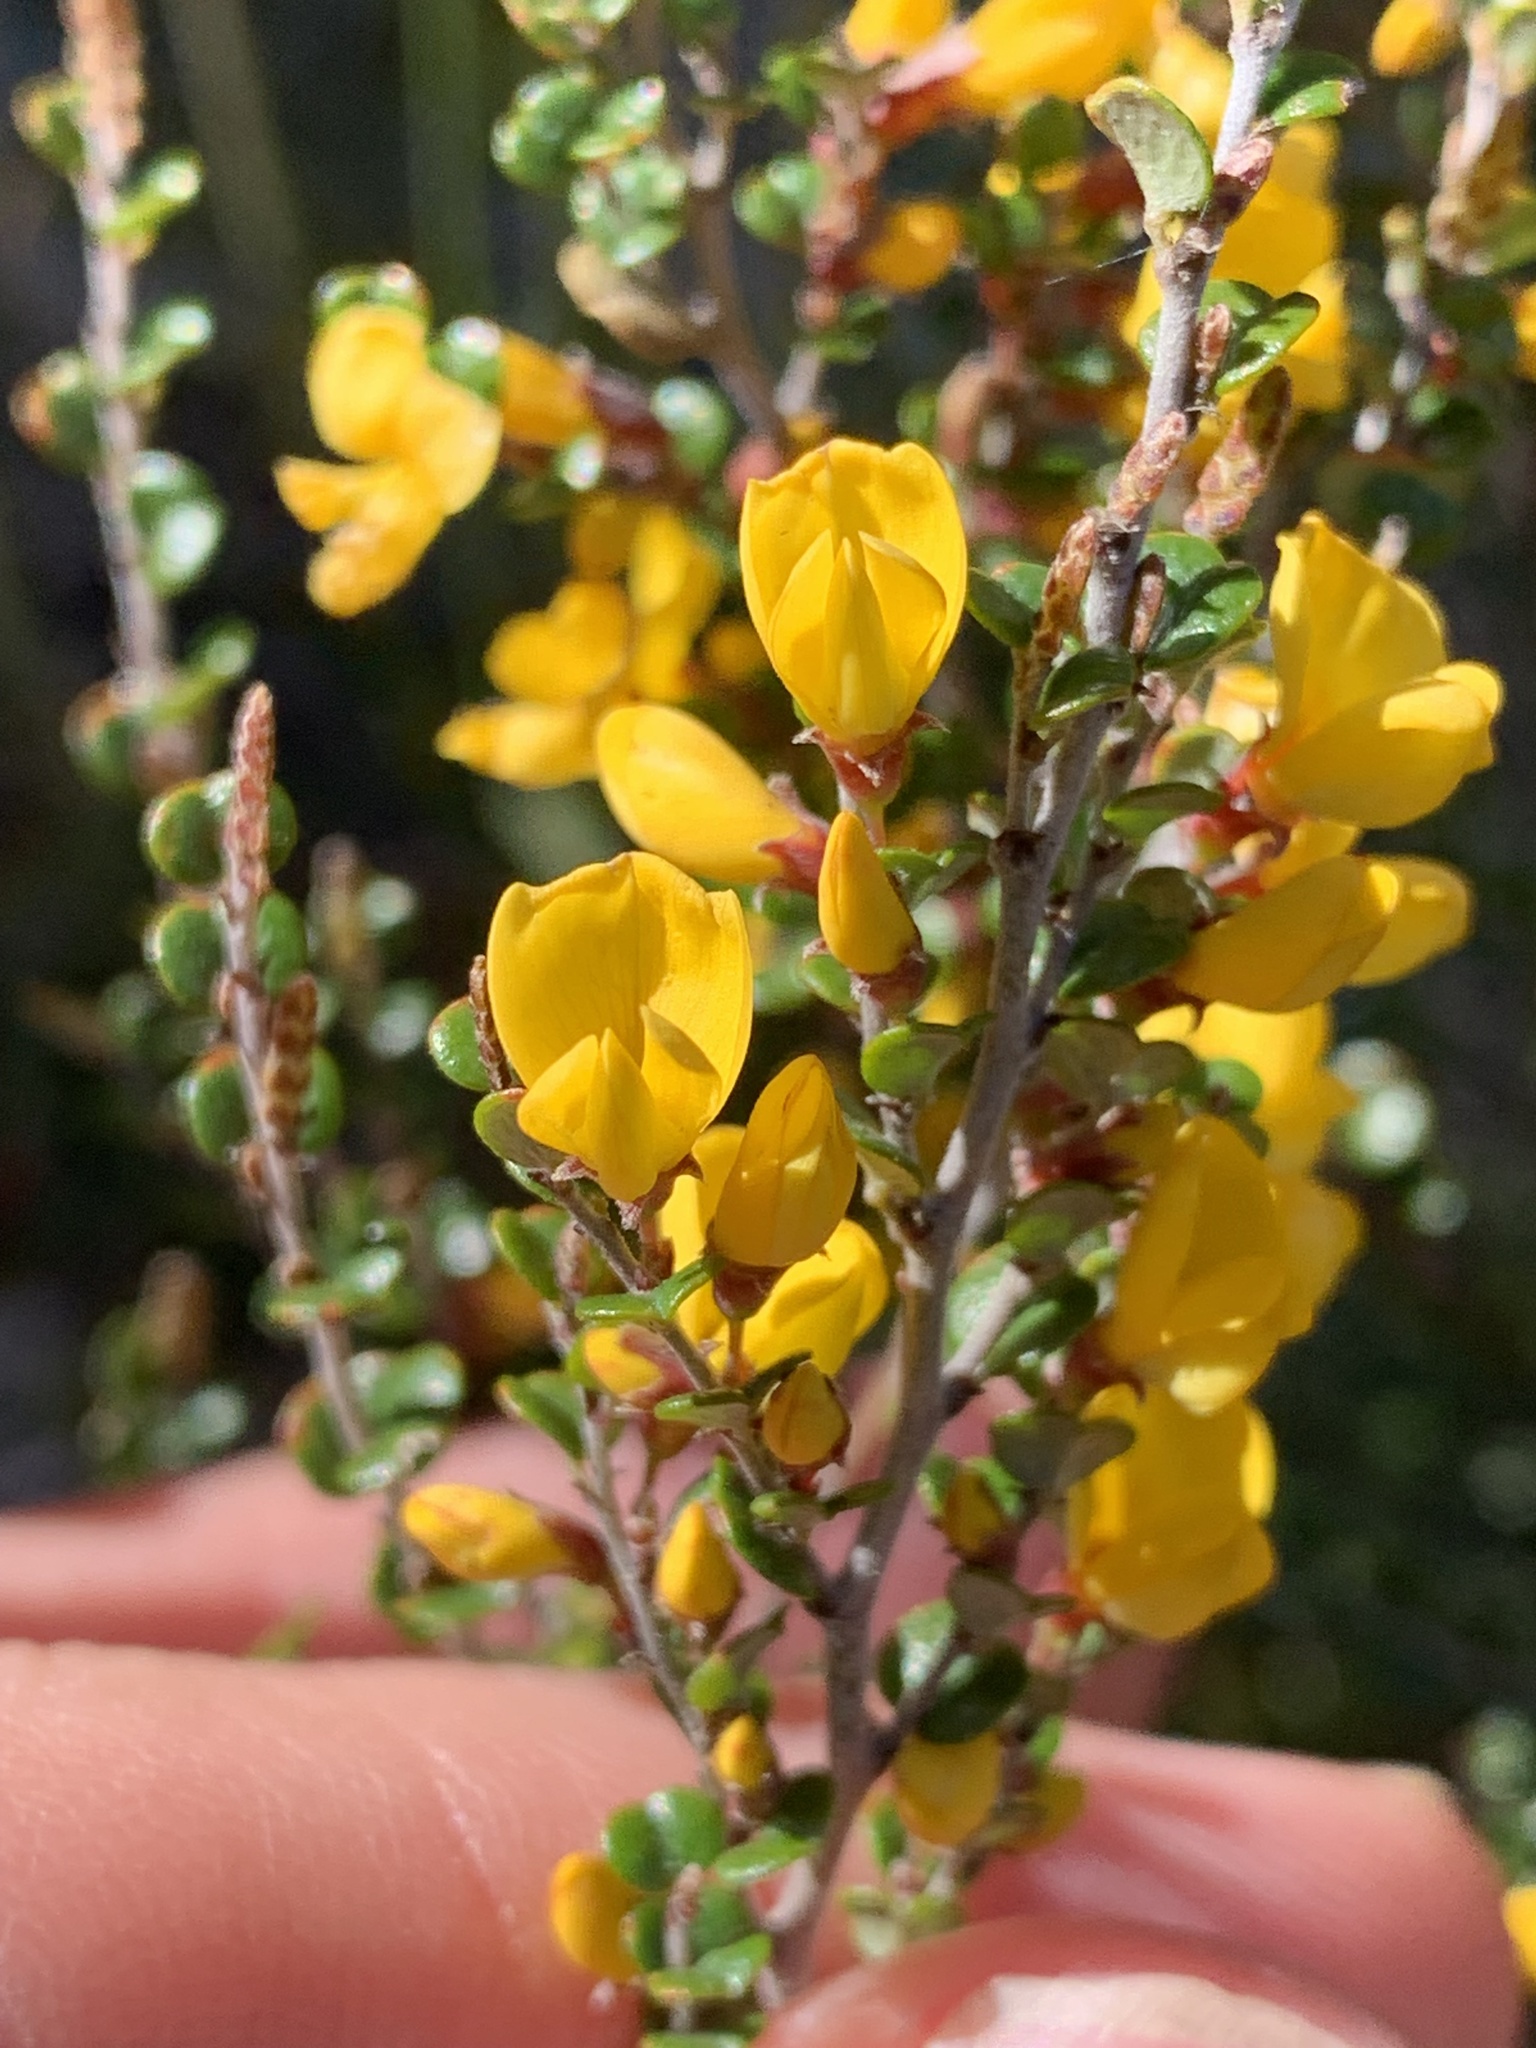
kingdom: Plantae
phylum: Tracheophyta
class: Magnoliopsida
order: Fabales
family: Fabaceae
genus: Bossiaea
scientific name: Bossiaea foliosa
